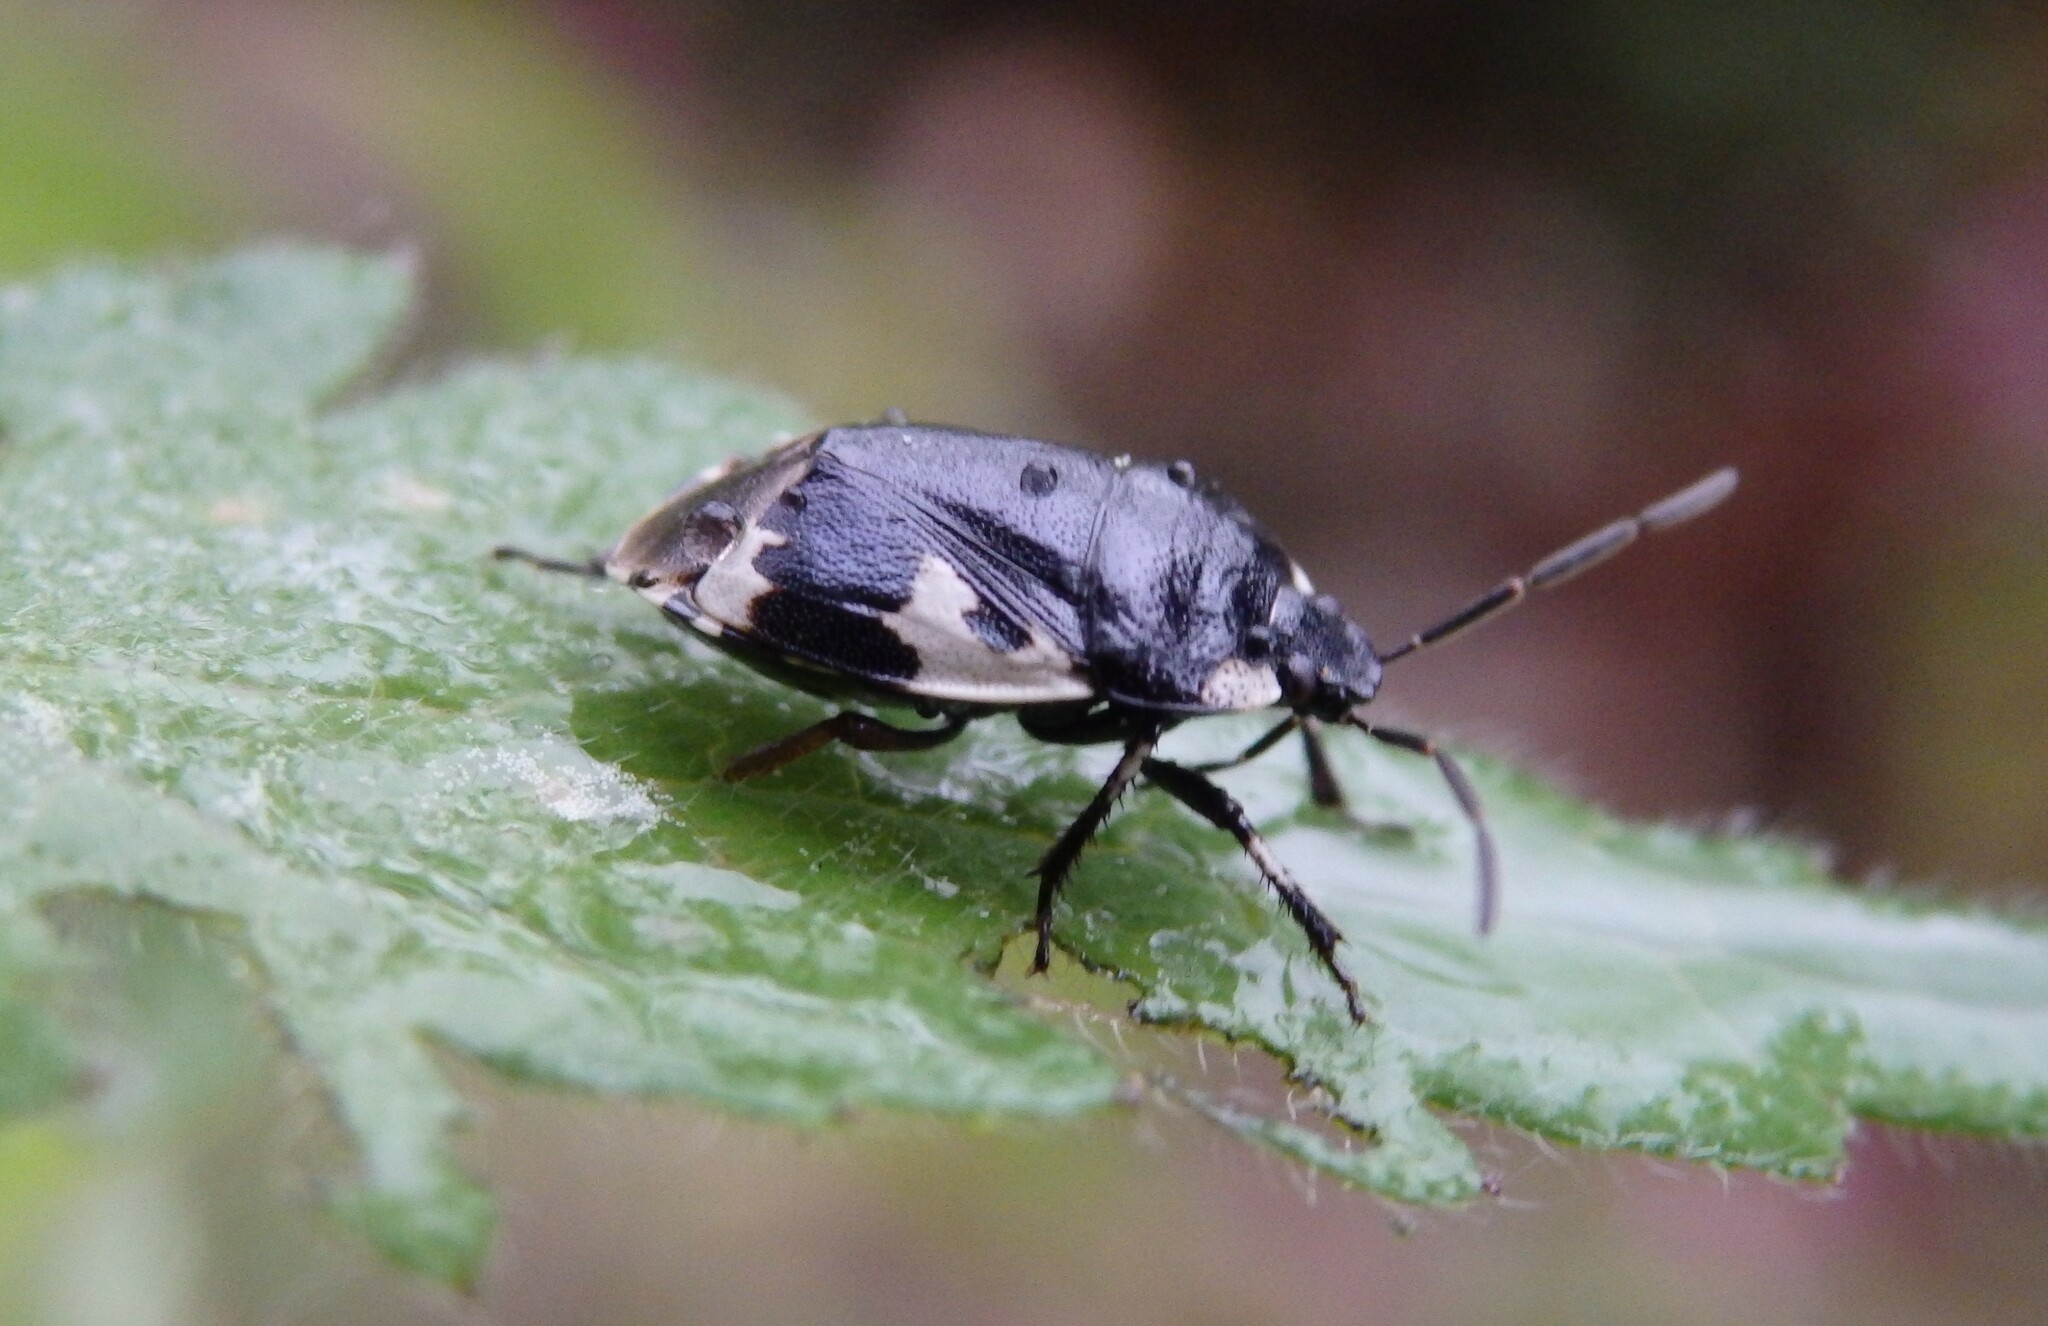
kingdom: Animalia
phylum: Arthropoda
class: Insecta
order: Hemiptera
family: Cydnidae
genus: Tritomegas
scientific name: Tritomegas bicolor
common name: Pied shieldbug
